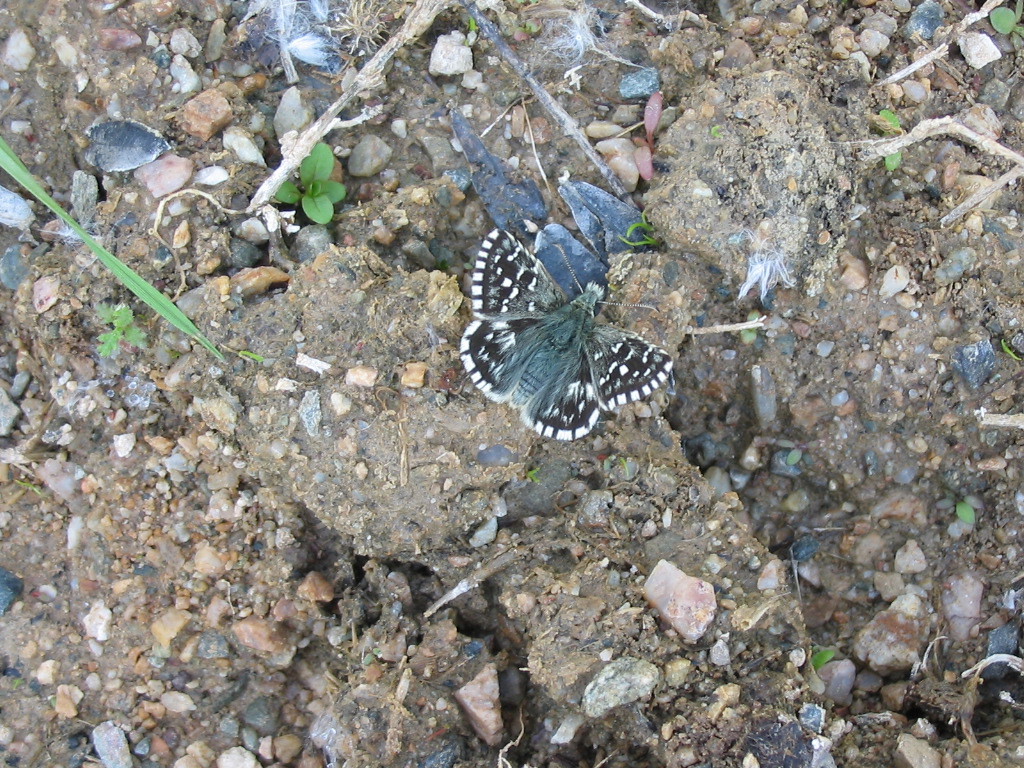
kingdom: Animalia
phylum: Arthropoda
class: Insecta
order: Lepidoptera
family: Hesperiidae
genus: Pyrgus
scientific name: Pyrgus malvae
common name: Grizzled skipper
